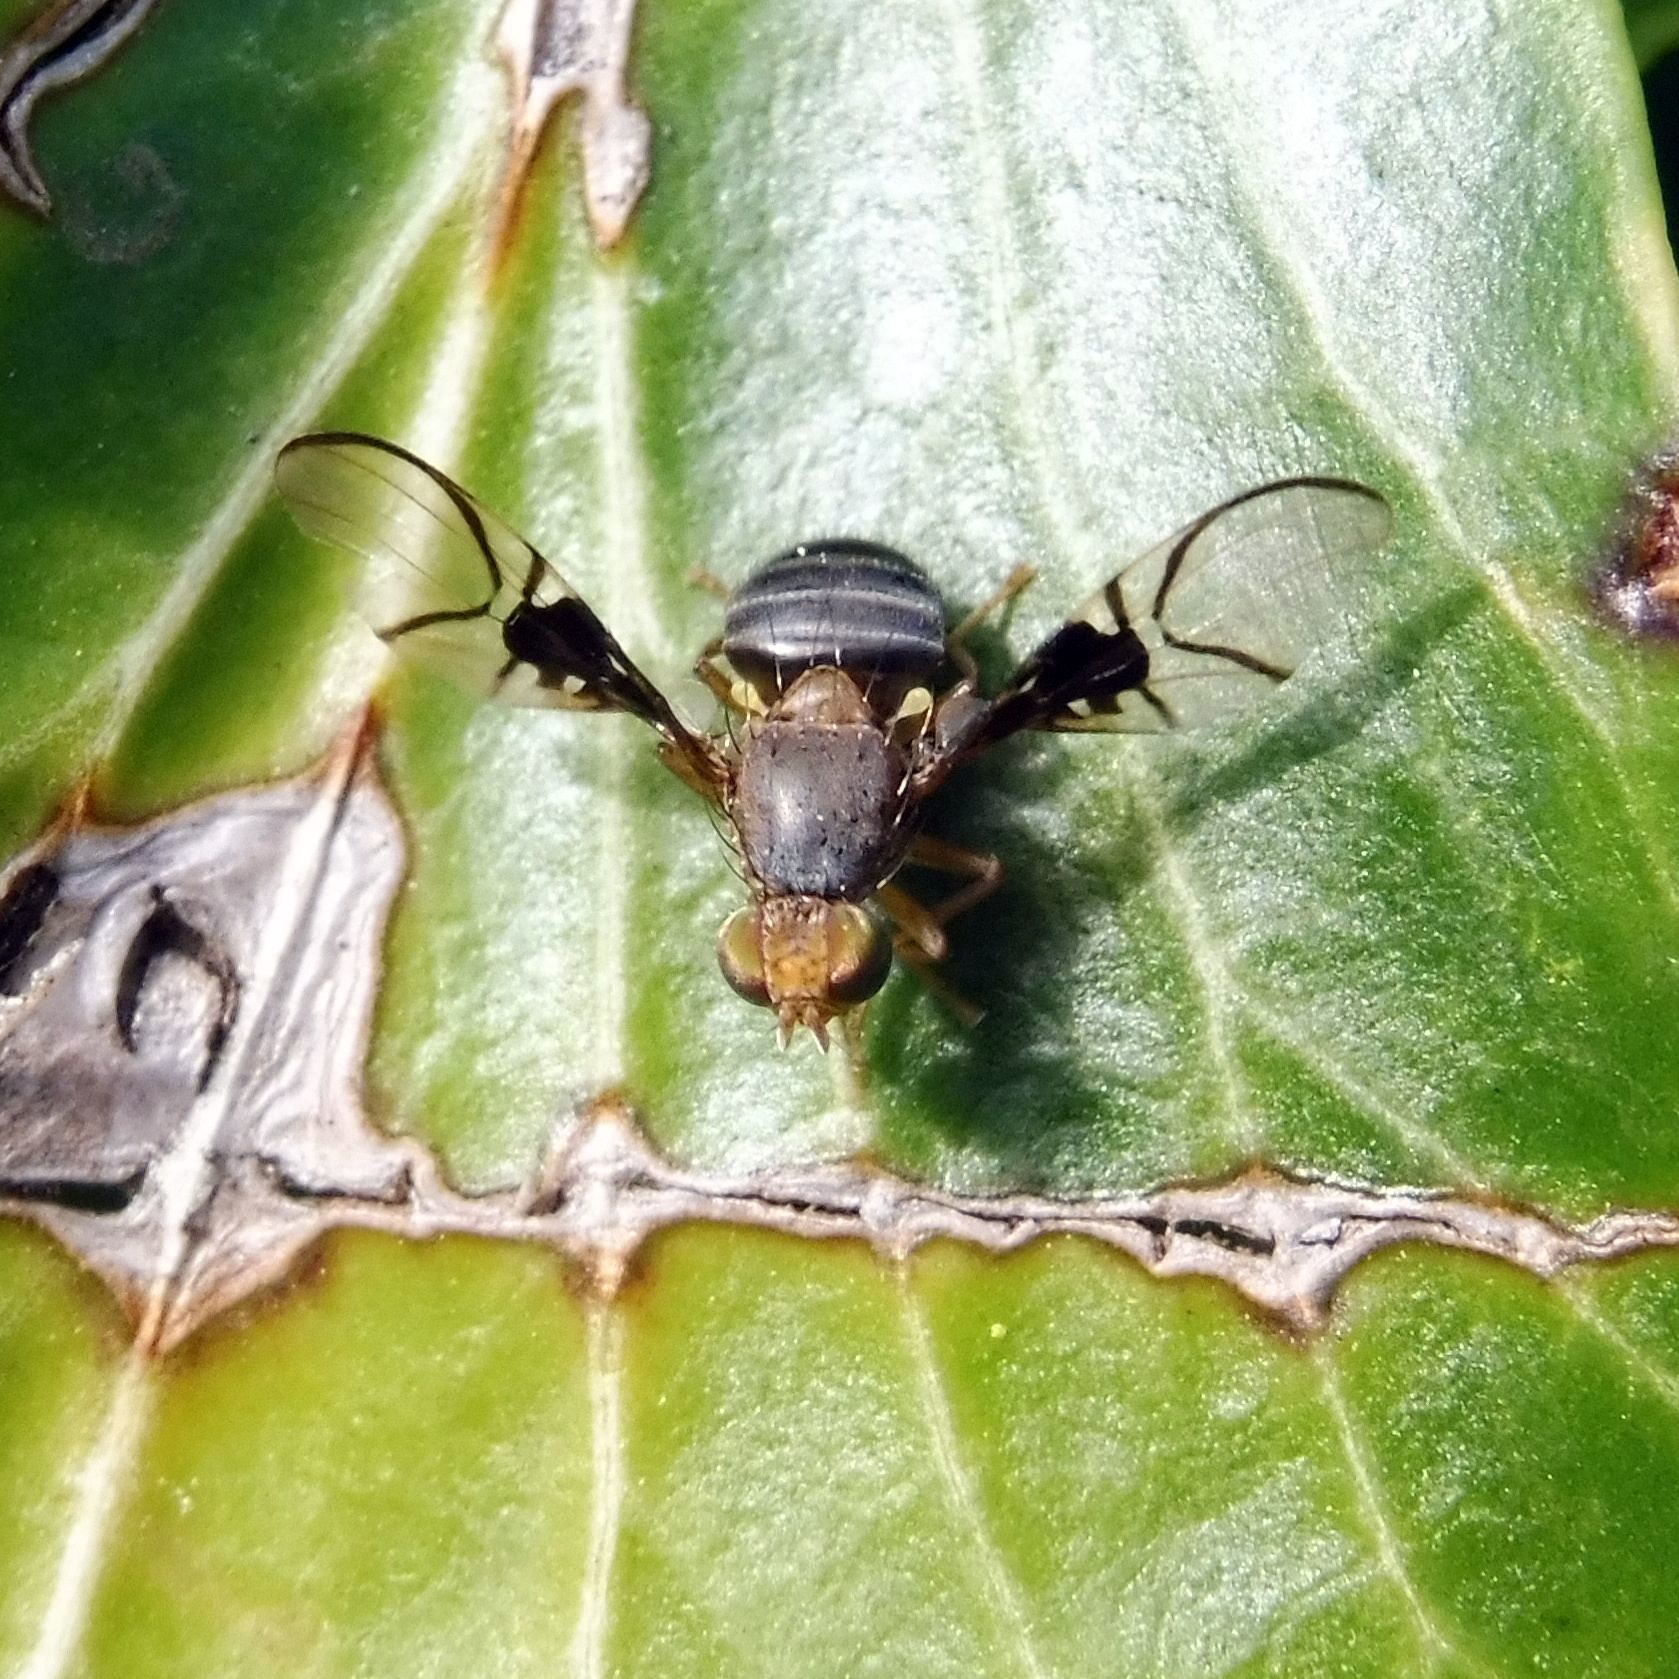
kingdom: Animalia
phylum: Arthropoda
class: Insecta
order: Diptera
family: Tephritidae
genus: Anomoia
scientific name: Anomoia purmunda
